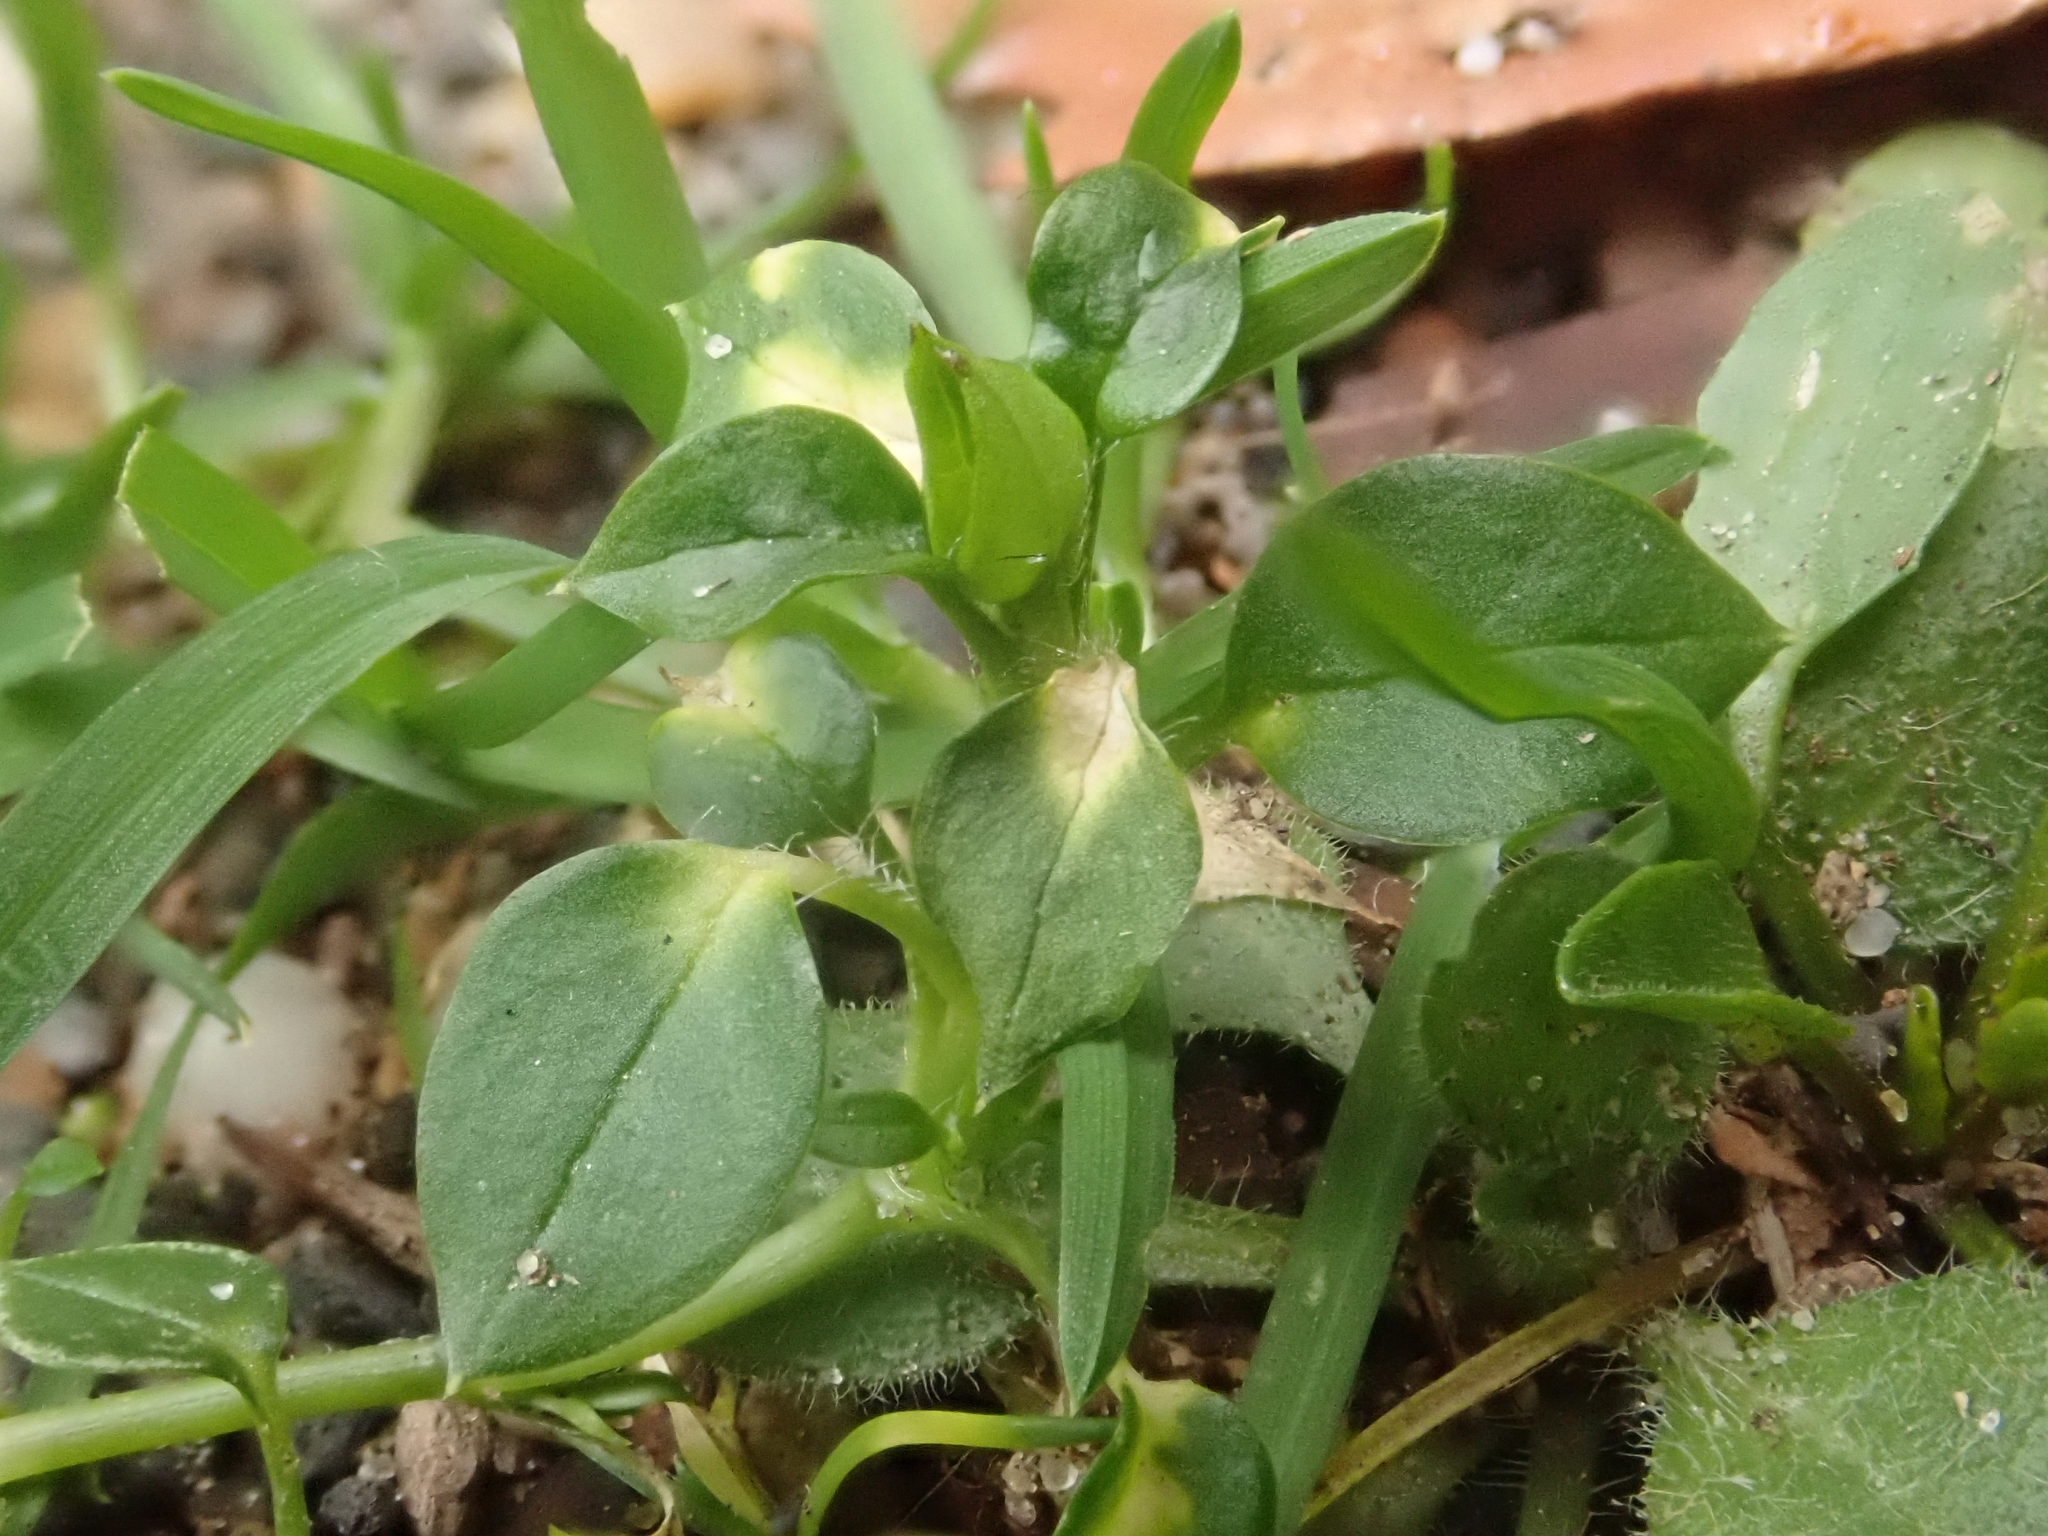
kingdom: Plantae
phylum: Tracheophyta
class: Magnoliopsida
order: Caryophyllales
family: Caryophyllaceae
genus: Stellaria
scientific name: Stellaria media
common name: Common chickweed
